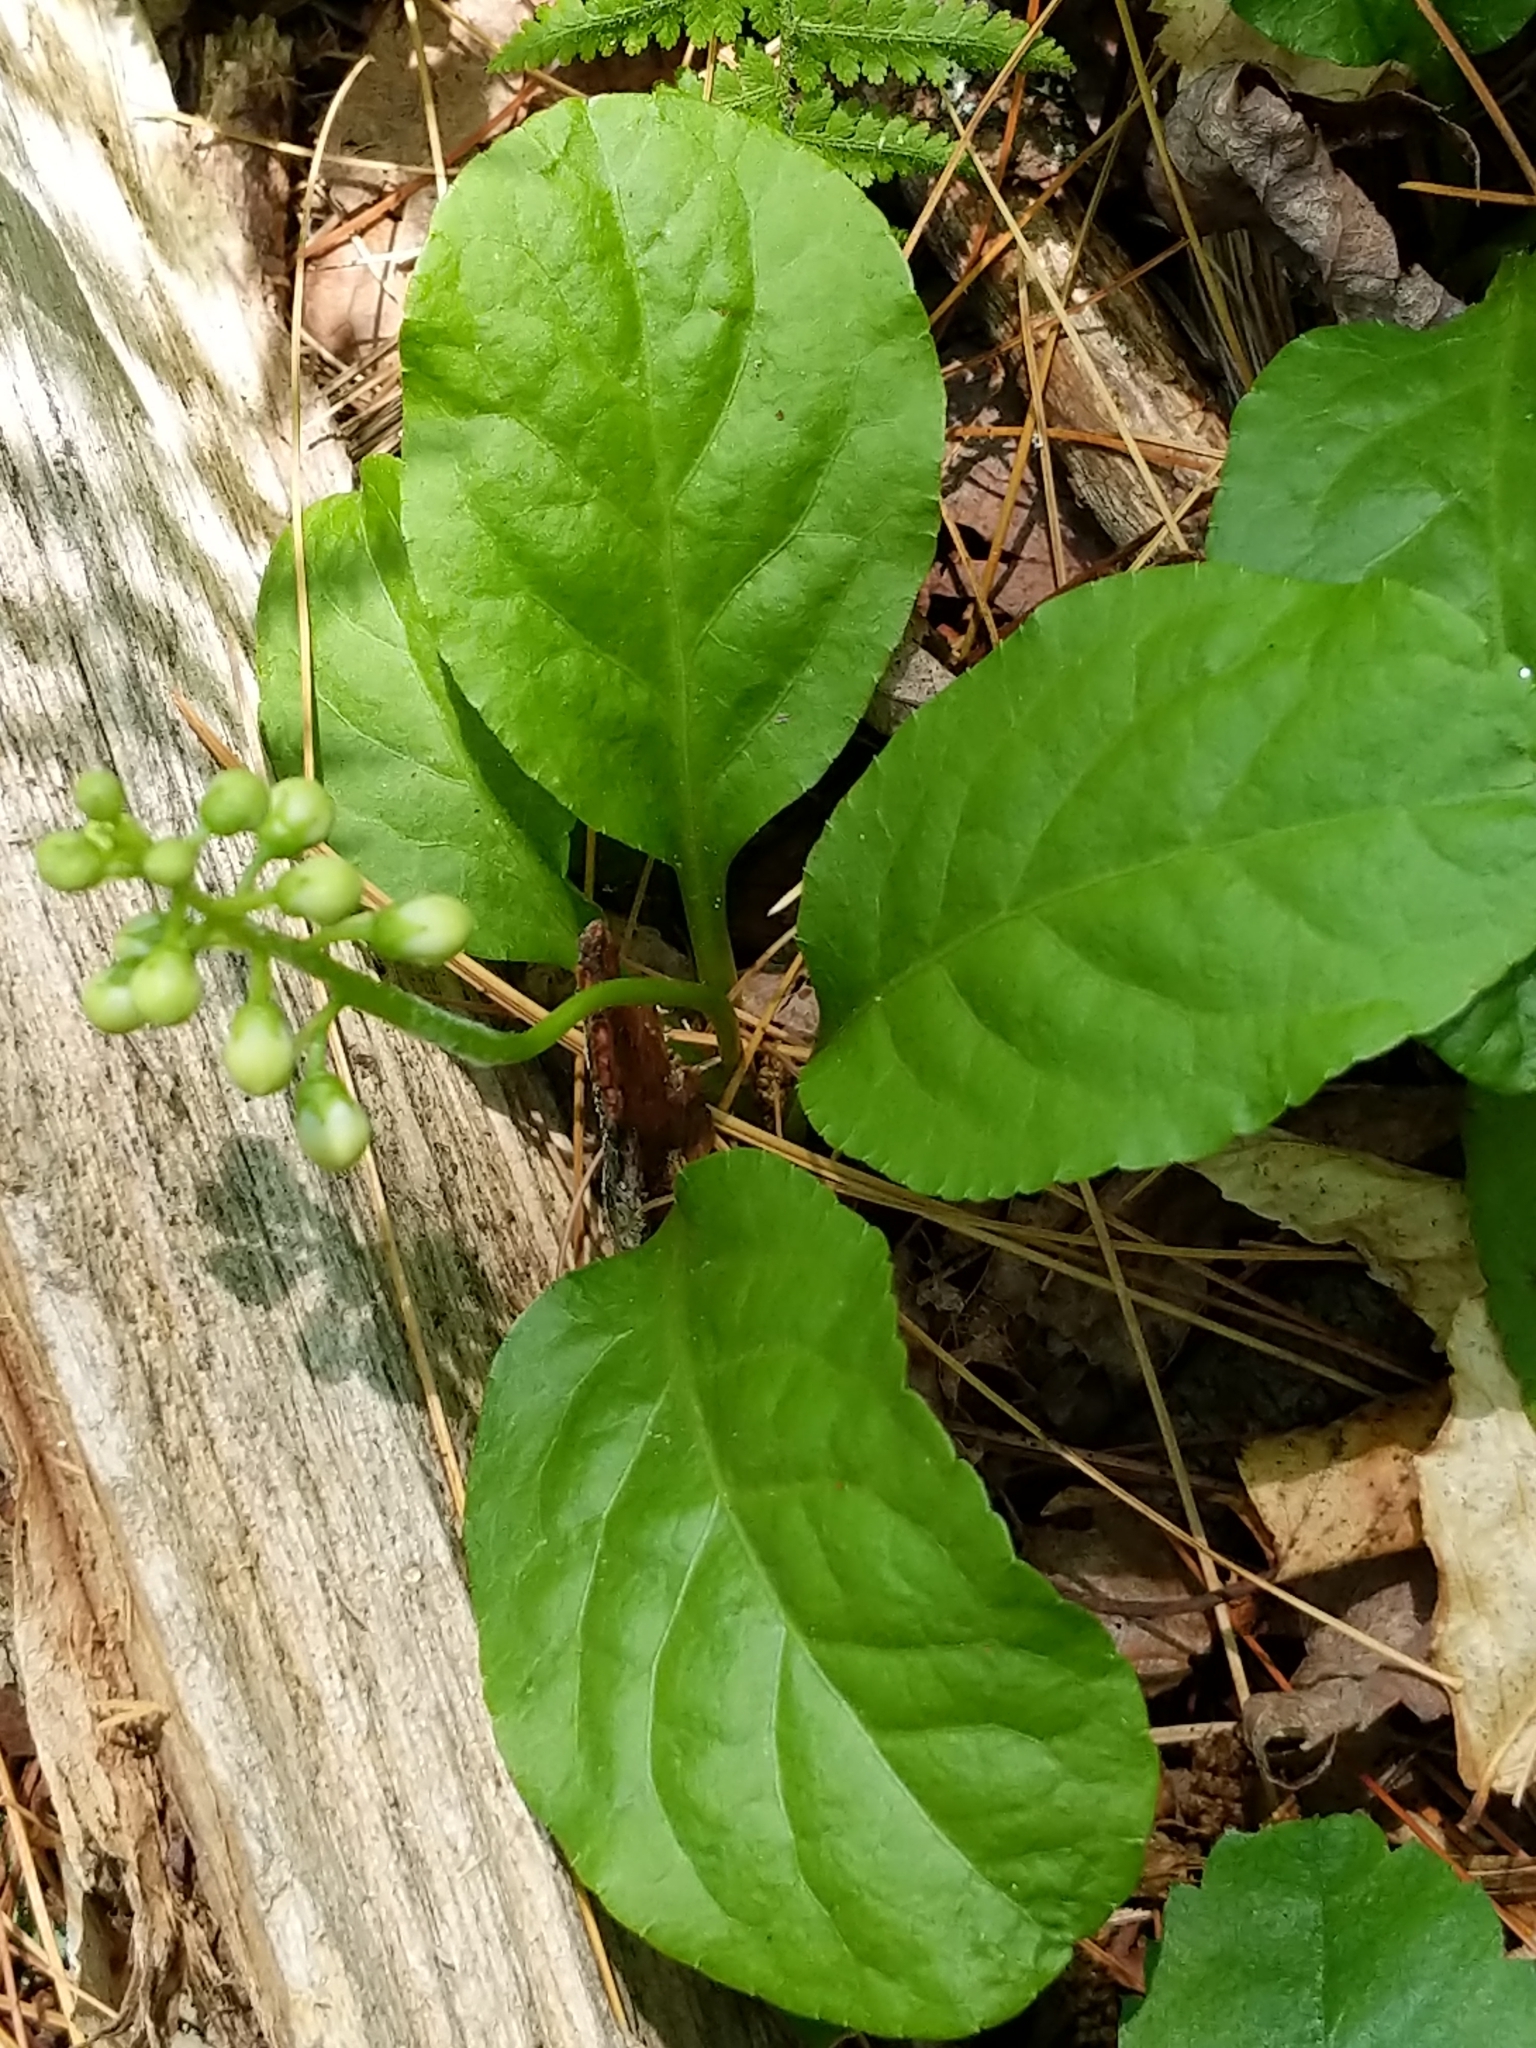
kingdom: Plantae
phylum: Tracheophyta
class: Magnoliopsida
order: Ericales
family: Ericaceae
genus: Pyrola
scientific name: Pyrola elliptica
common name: Shinleaf
